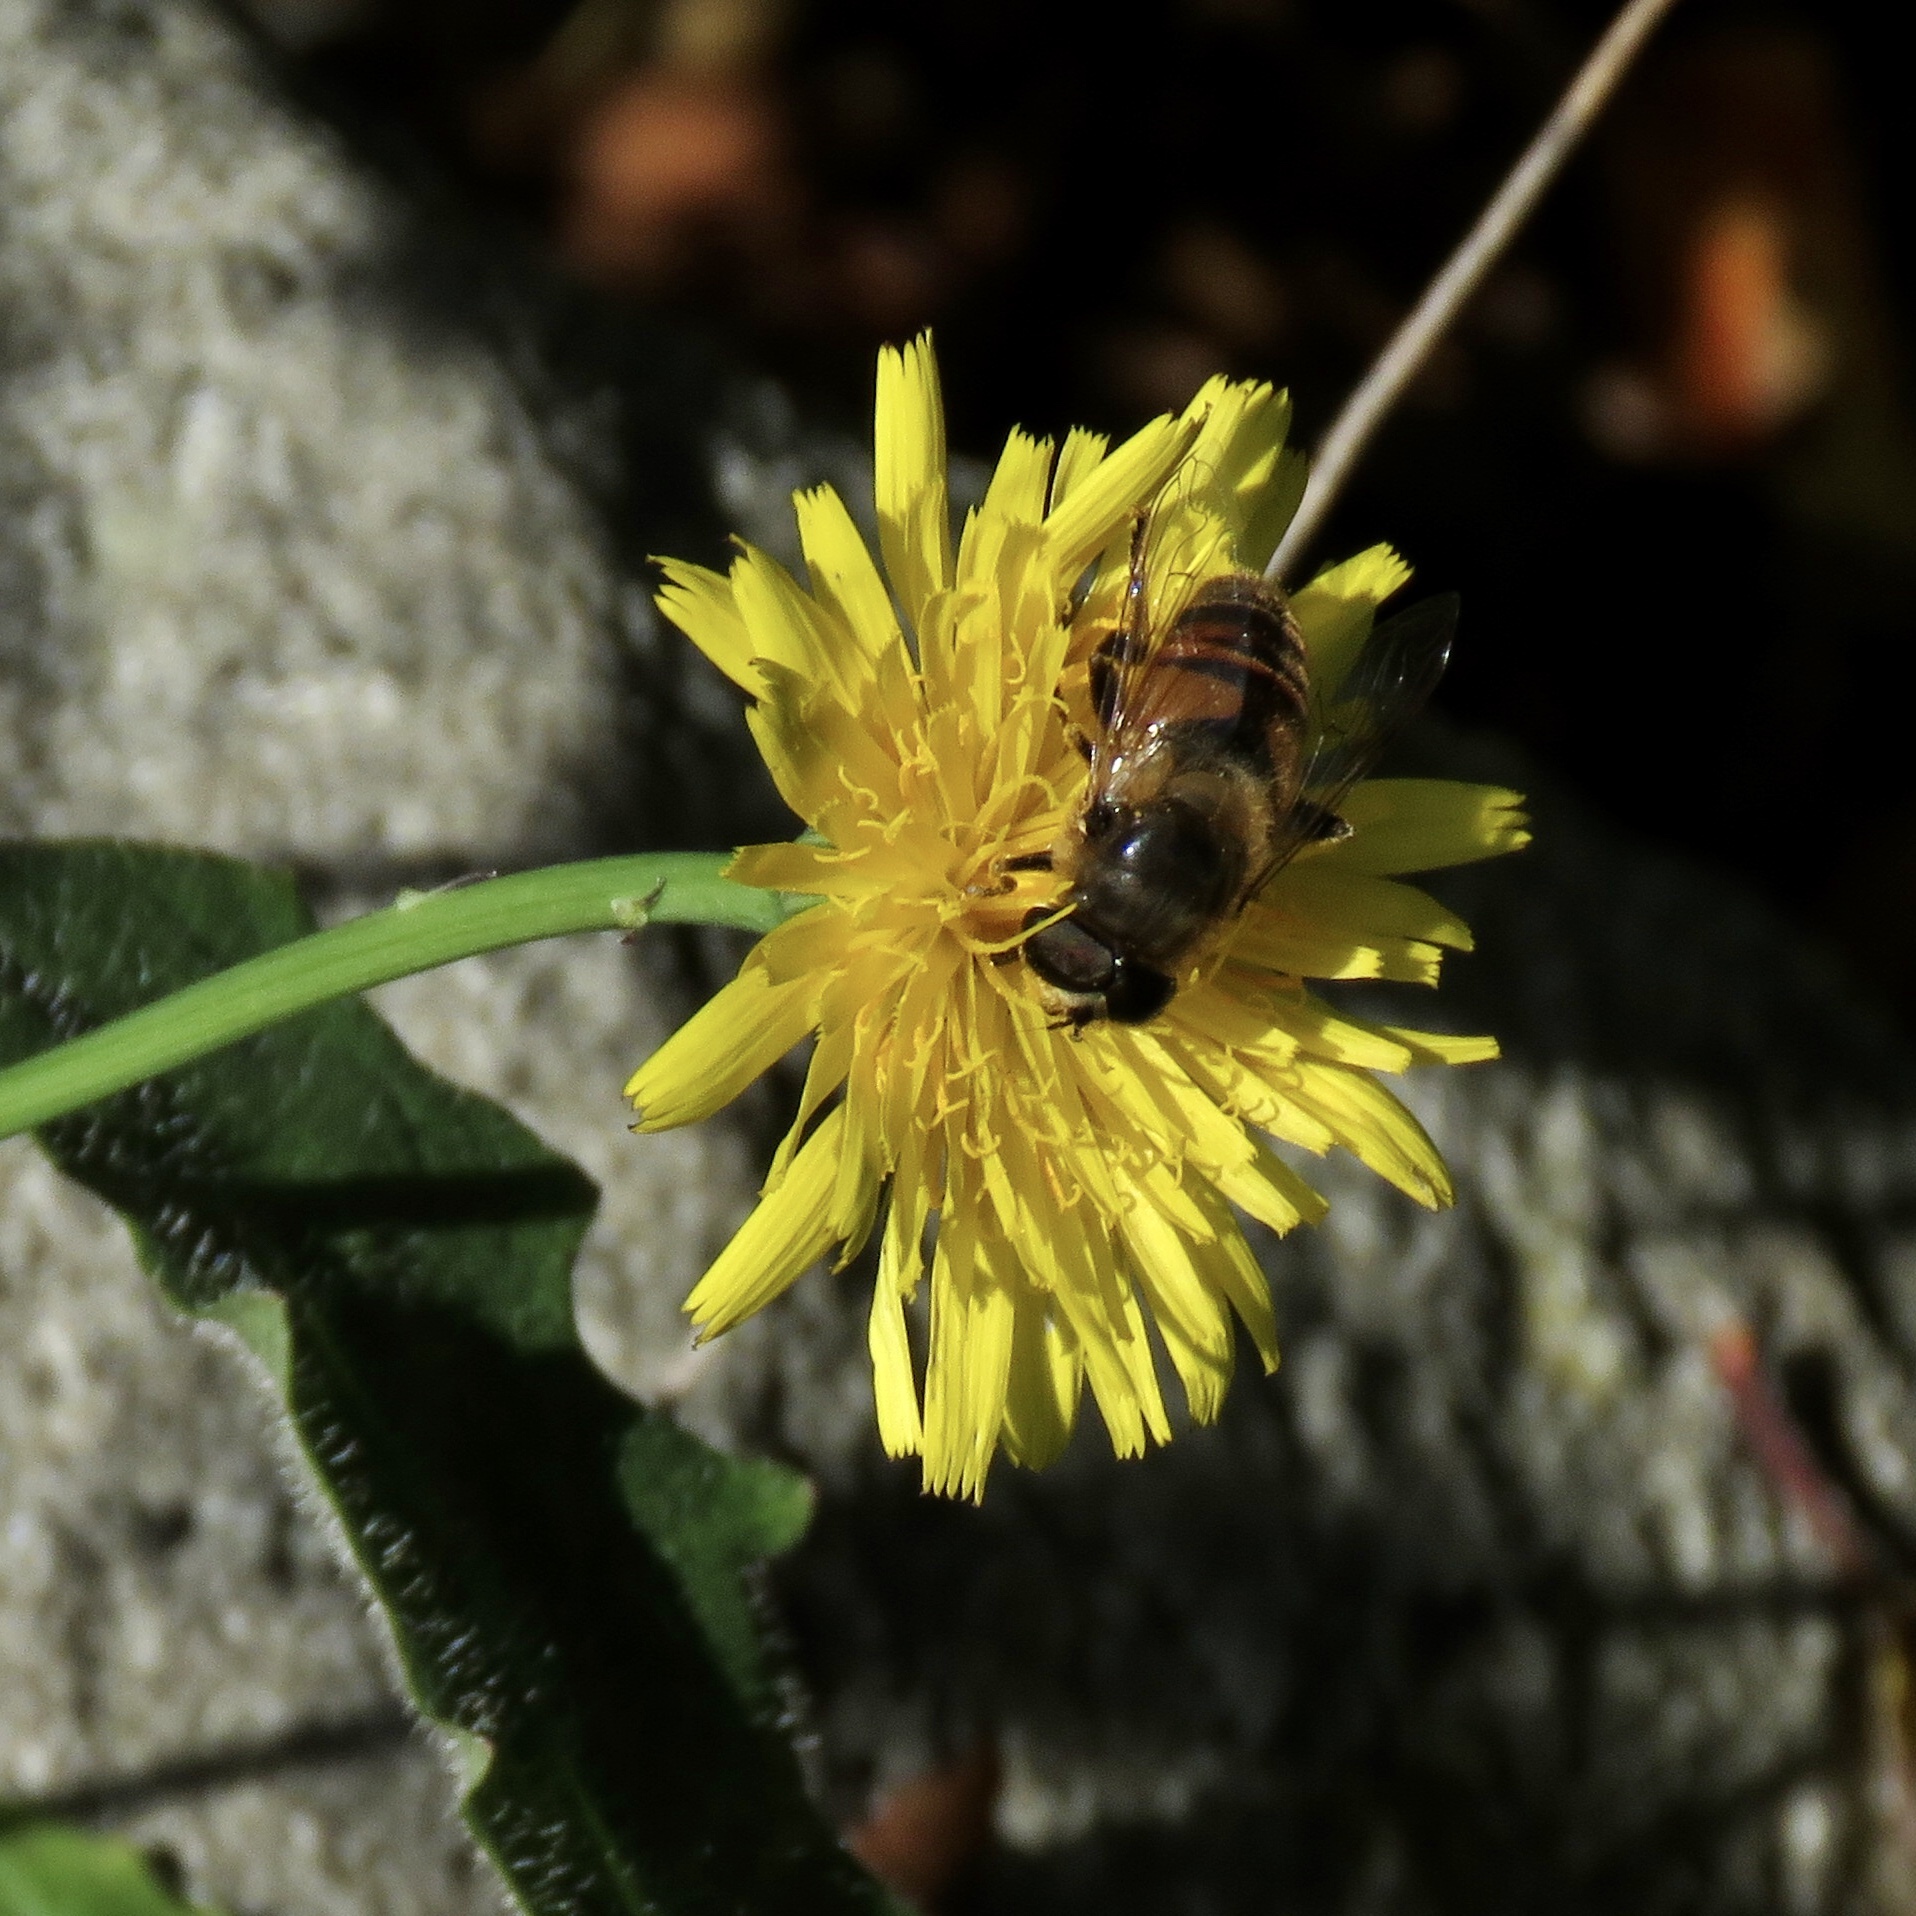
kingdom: Animalia
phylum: Arthropoda
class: Insecta
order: Diptera
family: Syrphidae
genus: Eristalis
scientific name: Eristalis tenax
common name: Drone fly
